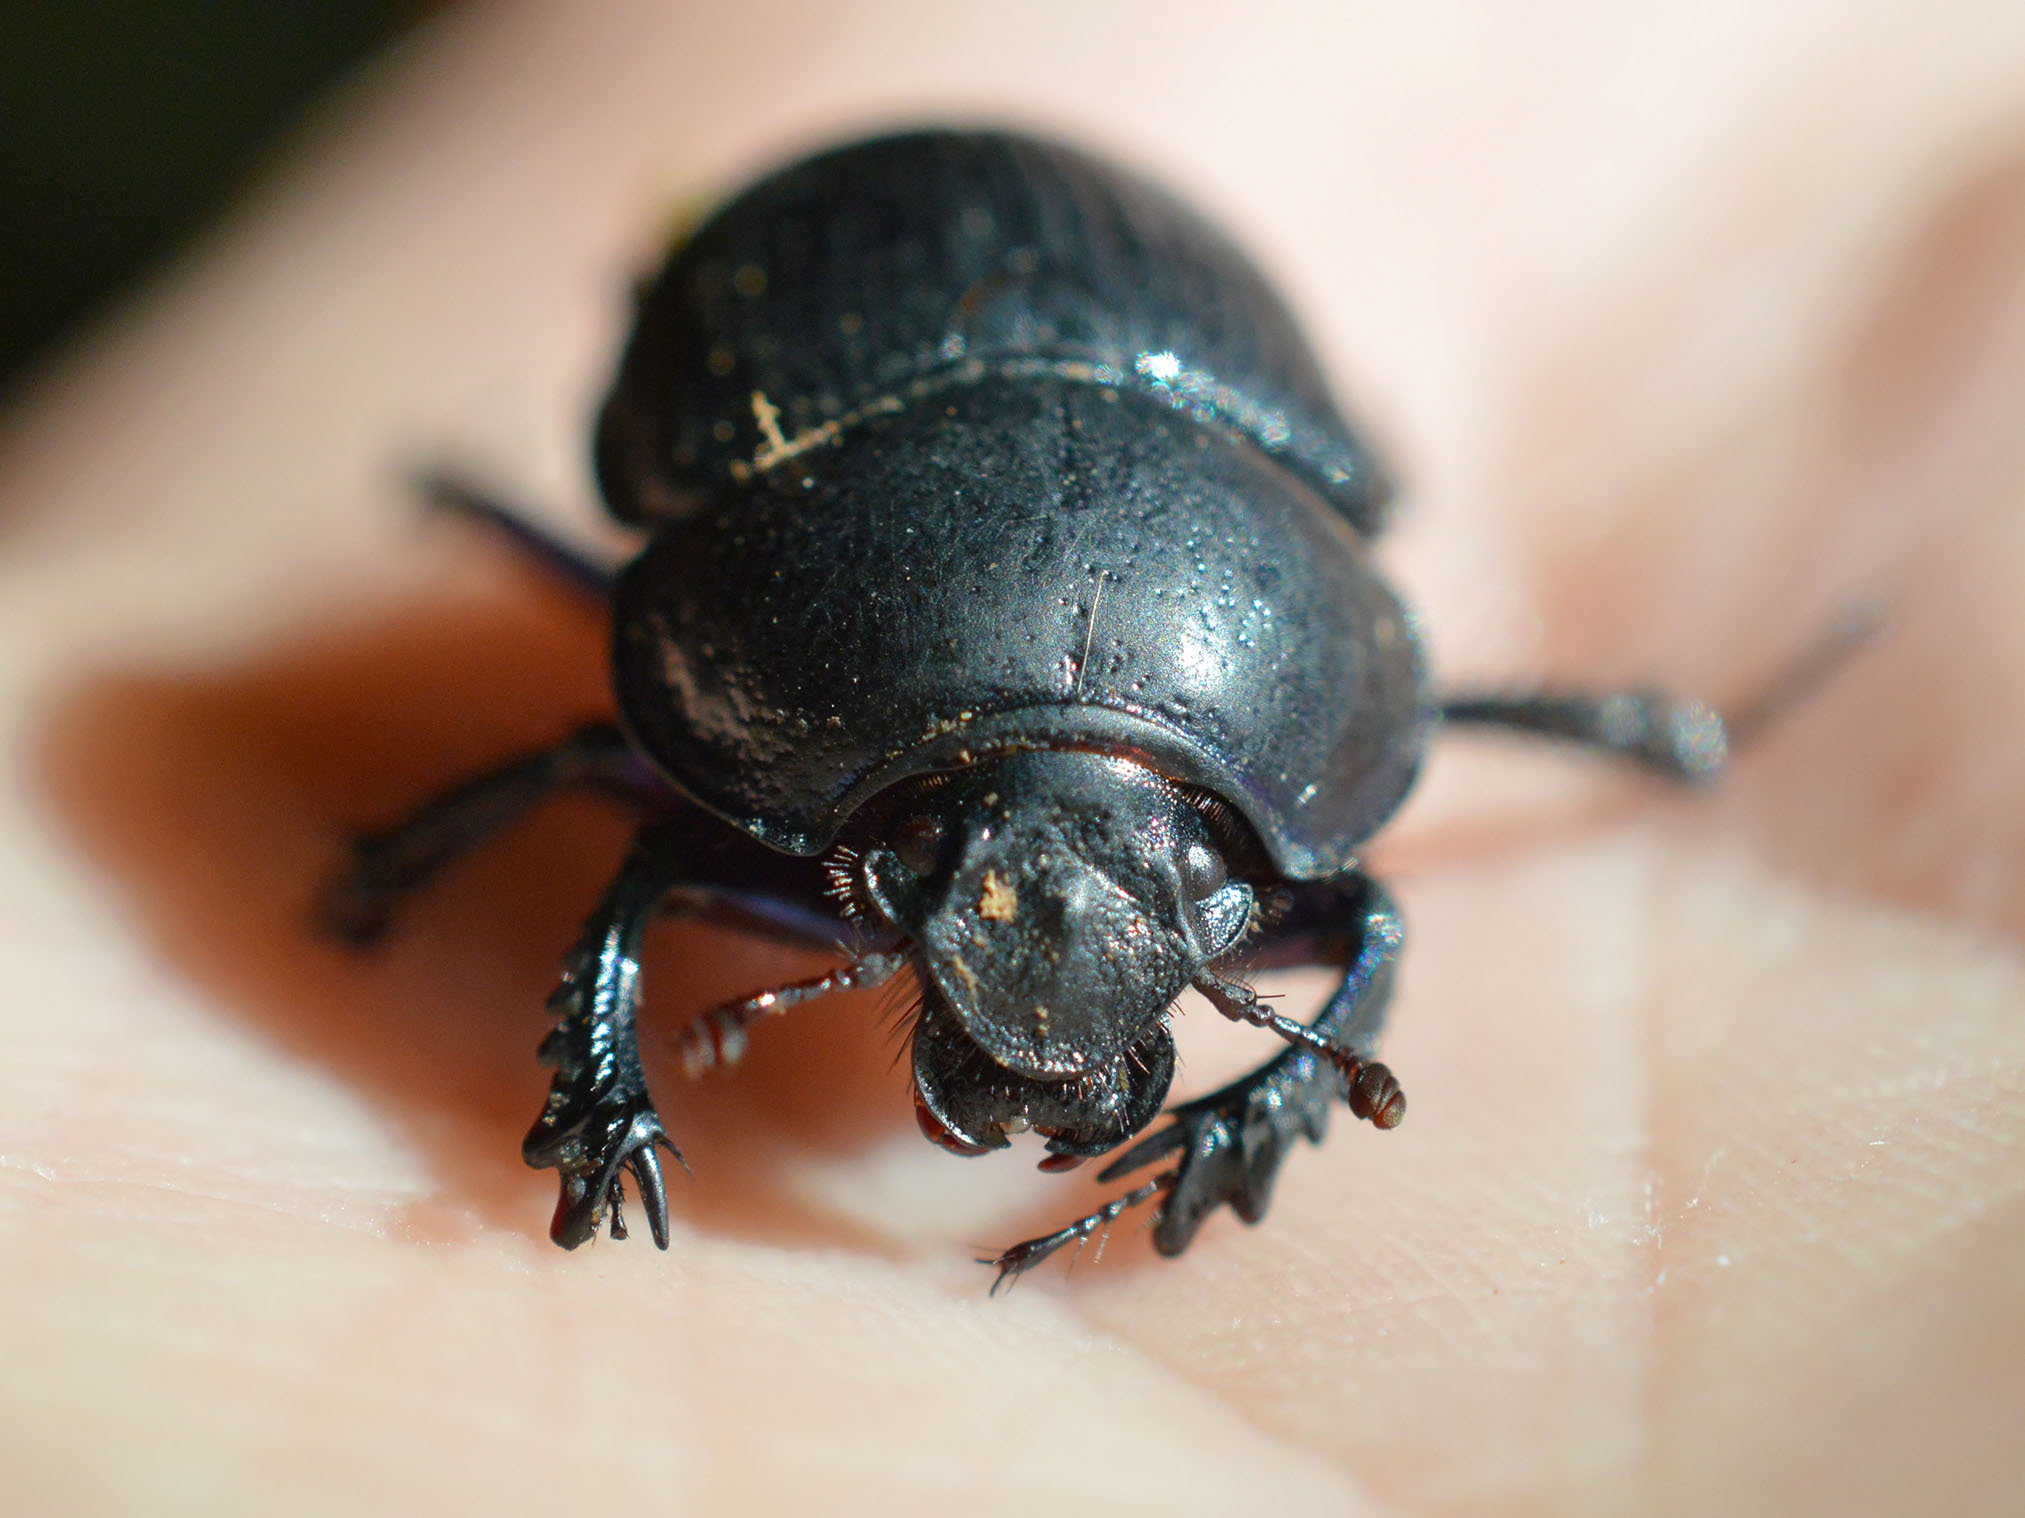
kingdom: Animalia
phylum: Arthropoda
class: Insecta
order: Coleoptera
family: Geotrupidae
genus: Anoplotrupes
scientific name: Anoplotrupes stercorosus
